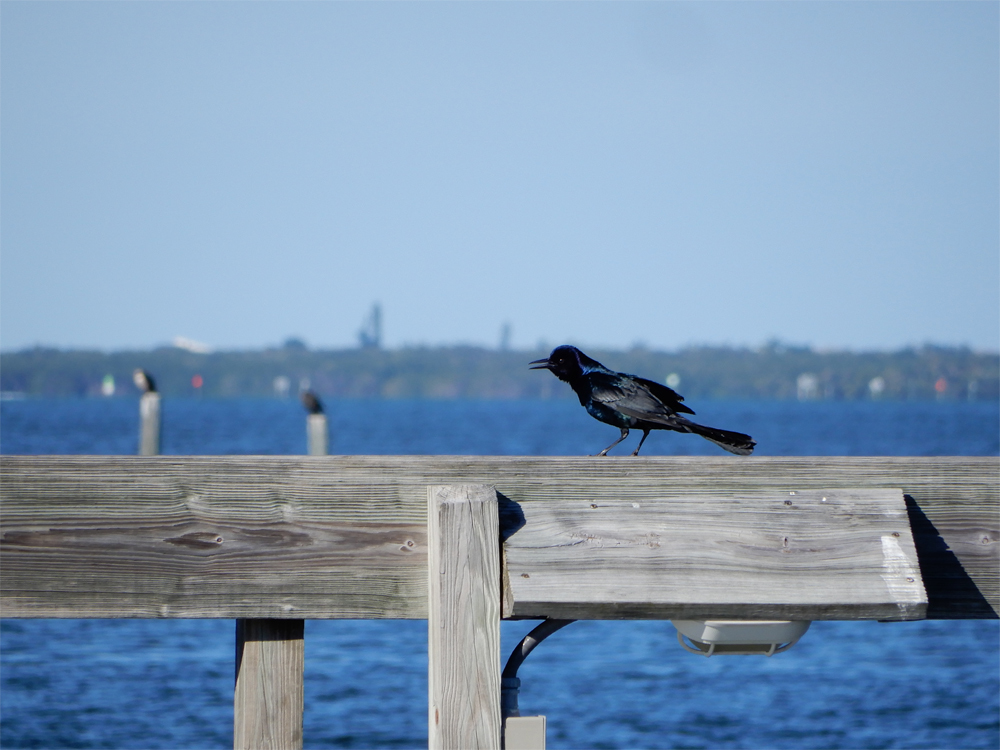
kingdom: Animalia
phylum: Chordata
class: Aves
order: Passeriformes
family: Icteridae
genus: Quiscalus
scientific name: Quiscalus major
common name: Boat-tailed grackle
